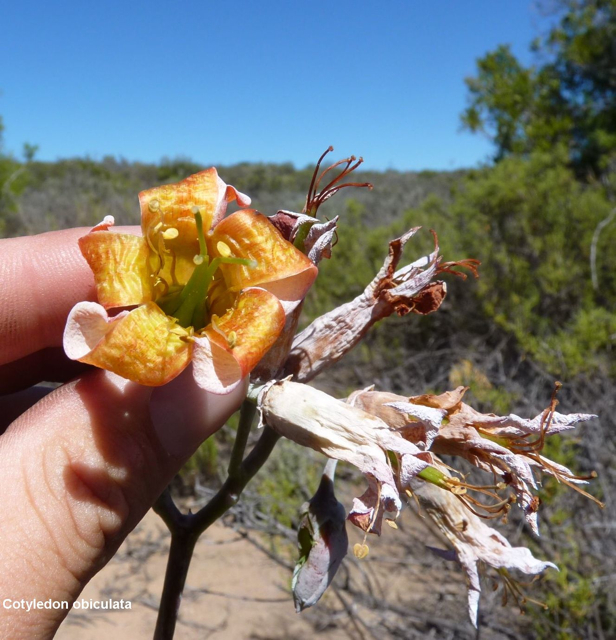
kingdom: Plantae
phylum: Tracheophyta
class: Magnoliopsida
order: Saxifragales
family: Crassulaceae
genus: Cotyledon
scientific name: Cotyledon orbiculata
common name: Pig's ear
